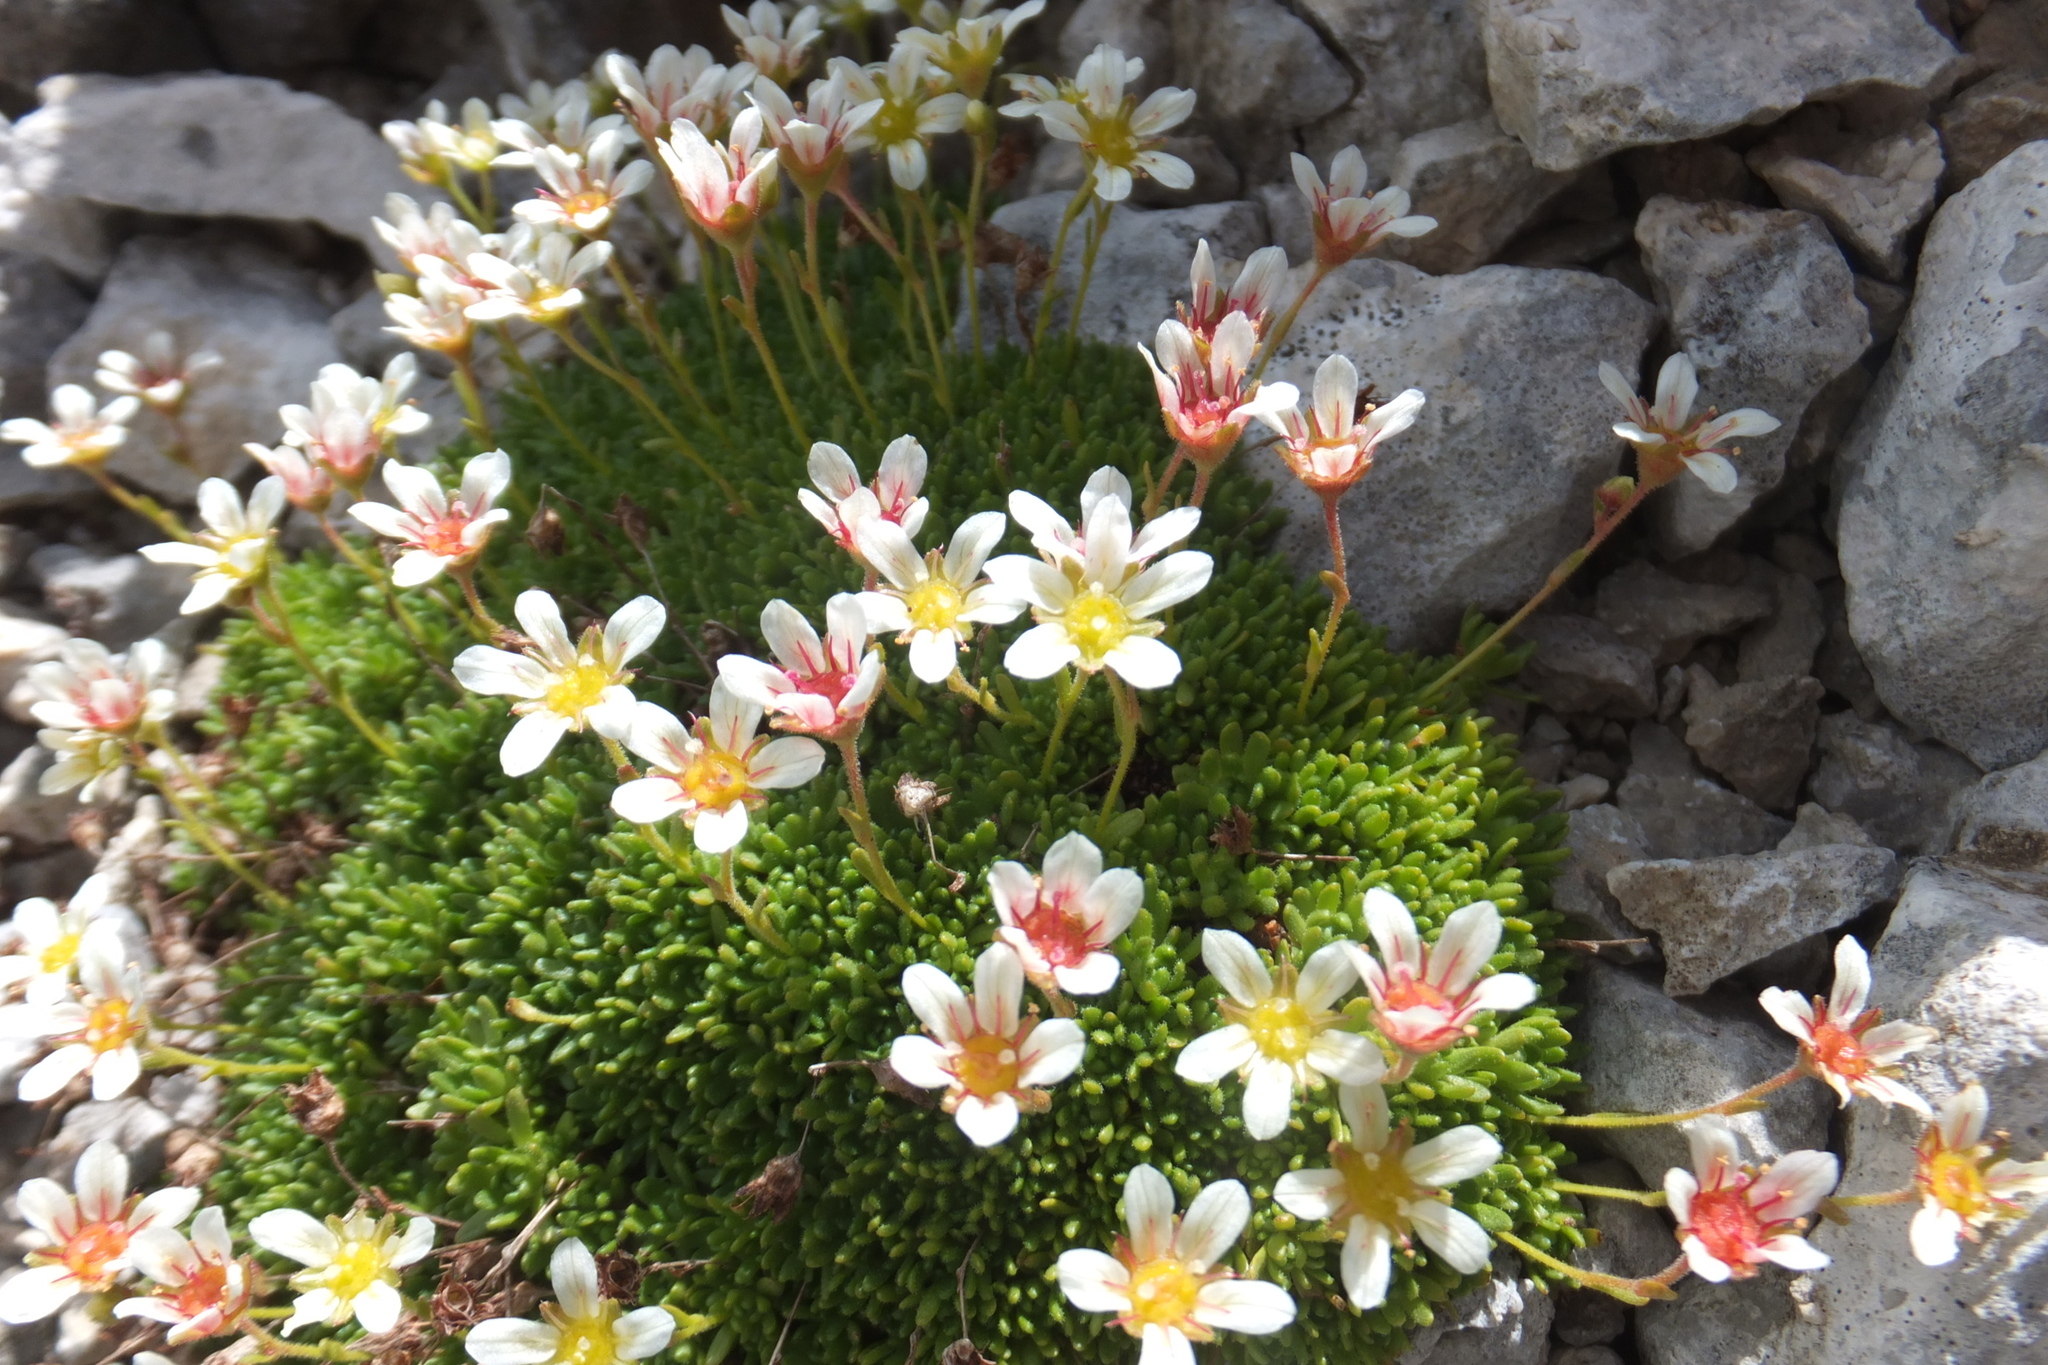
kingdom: Plantae
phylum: Tracheophyta
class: Magnoliopsida
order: Saxifragales
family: Saxifragaceae
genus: Saxifraga
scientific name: Saxifraga exarata
